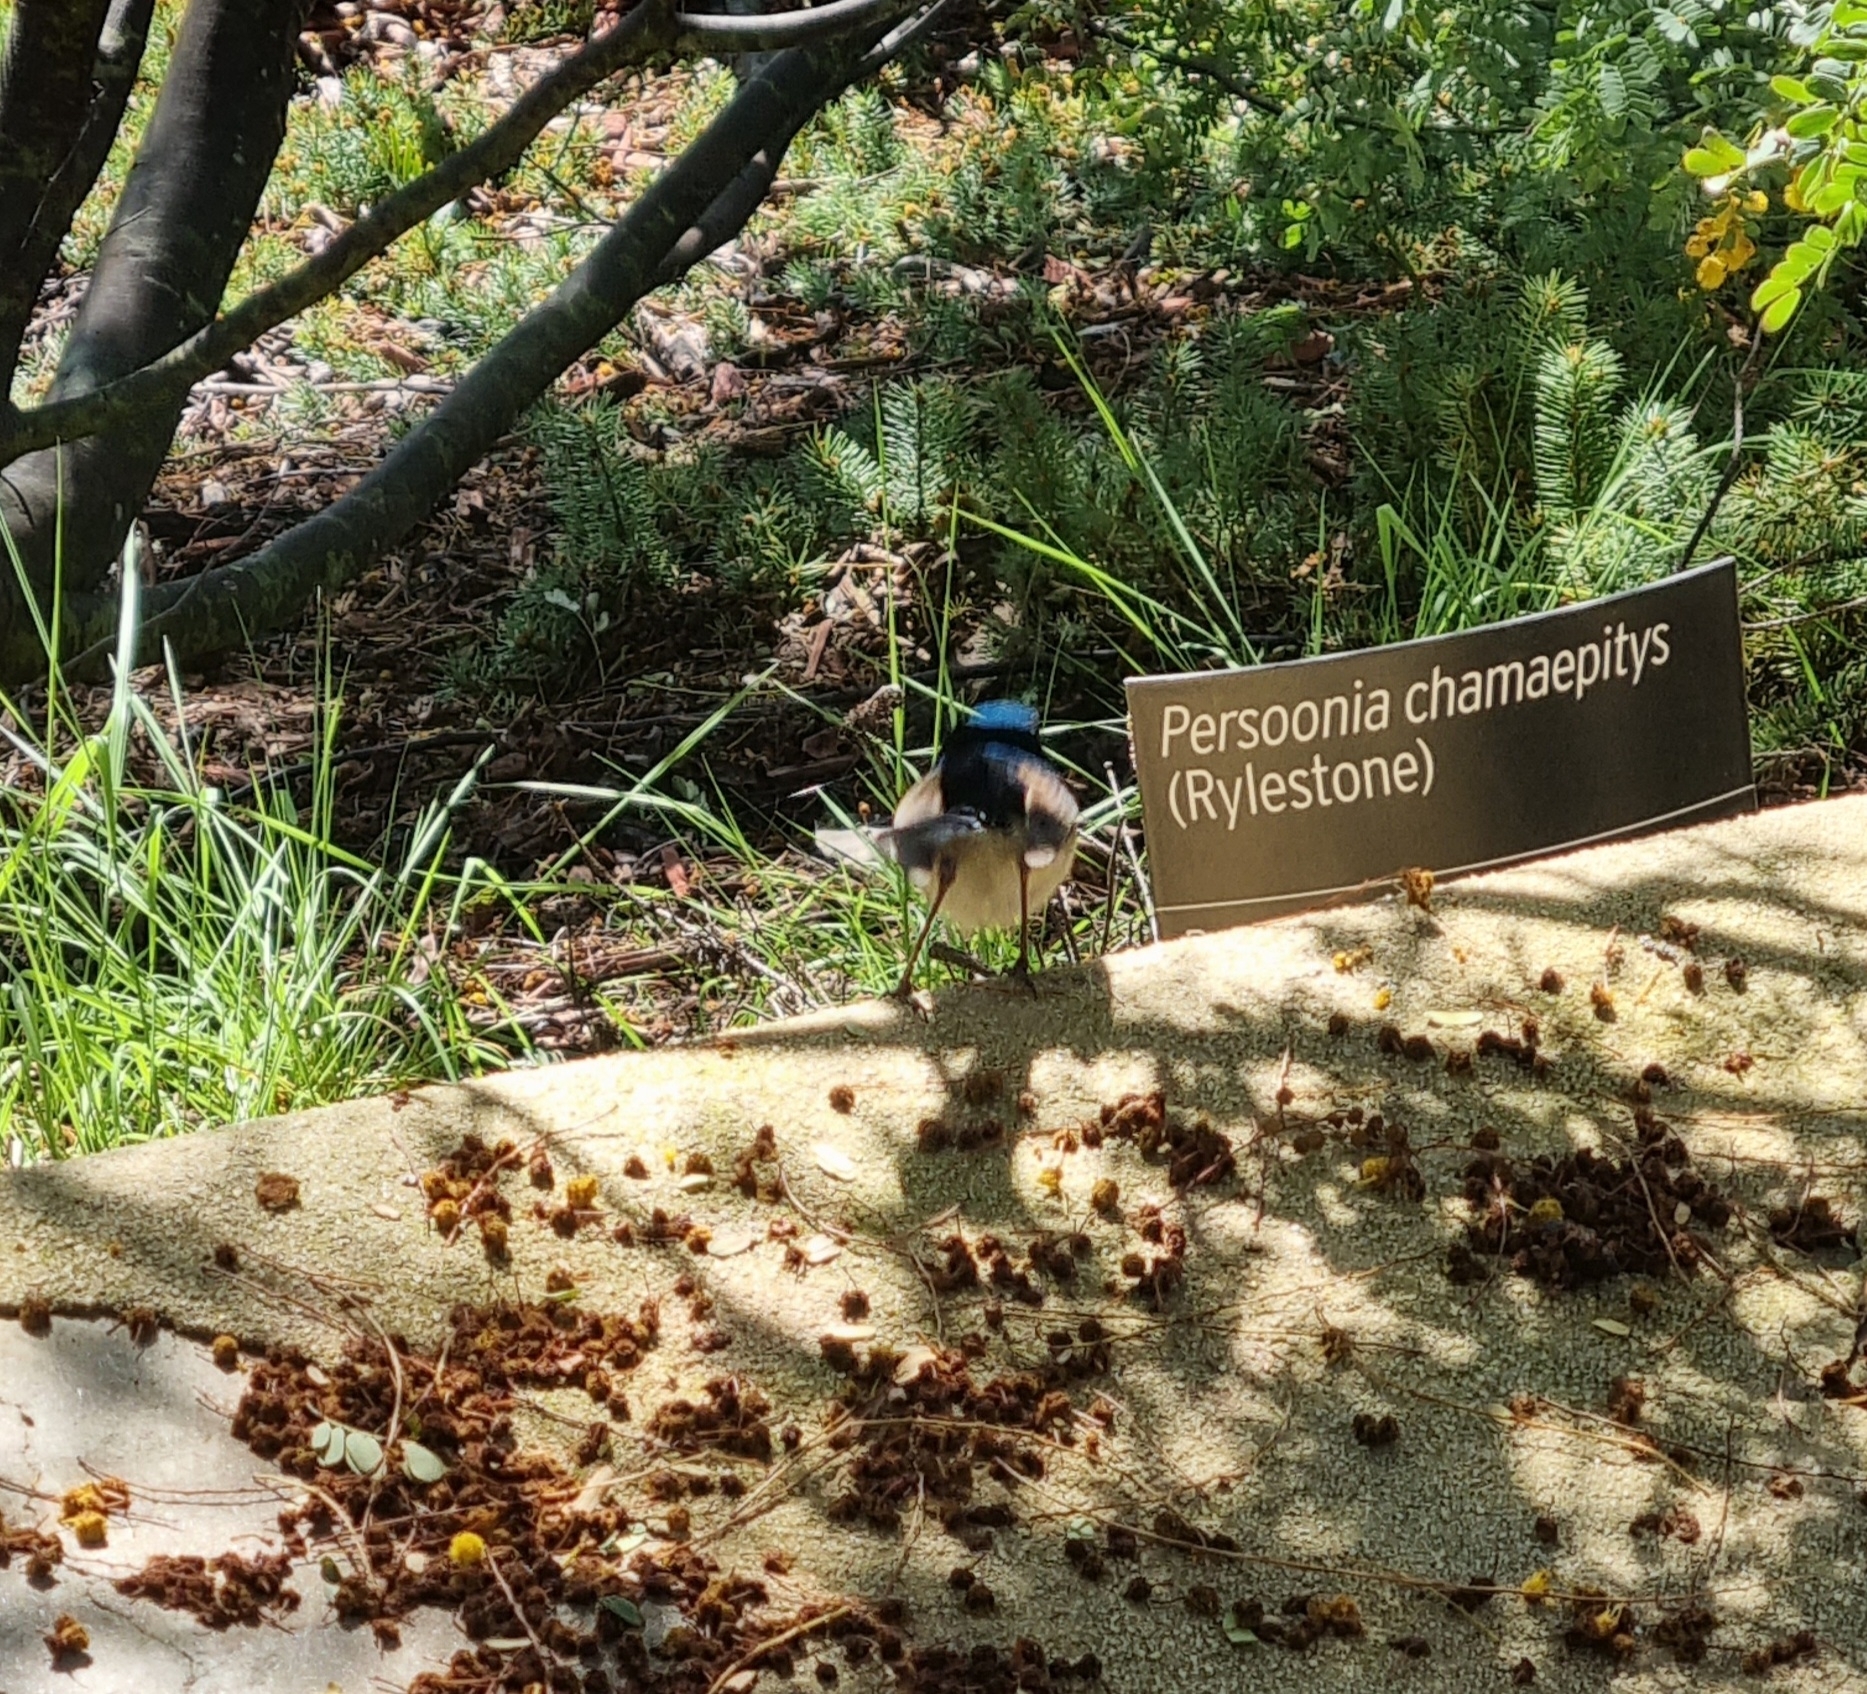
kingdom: Animalia
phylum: Chordata
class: Aves
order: Passeriformes
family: Maluridae
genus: Malurus
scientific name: Malurus cyaneus
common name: Superb fairywren
